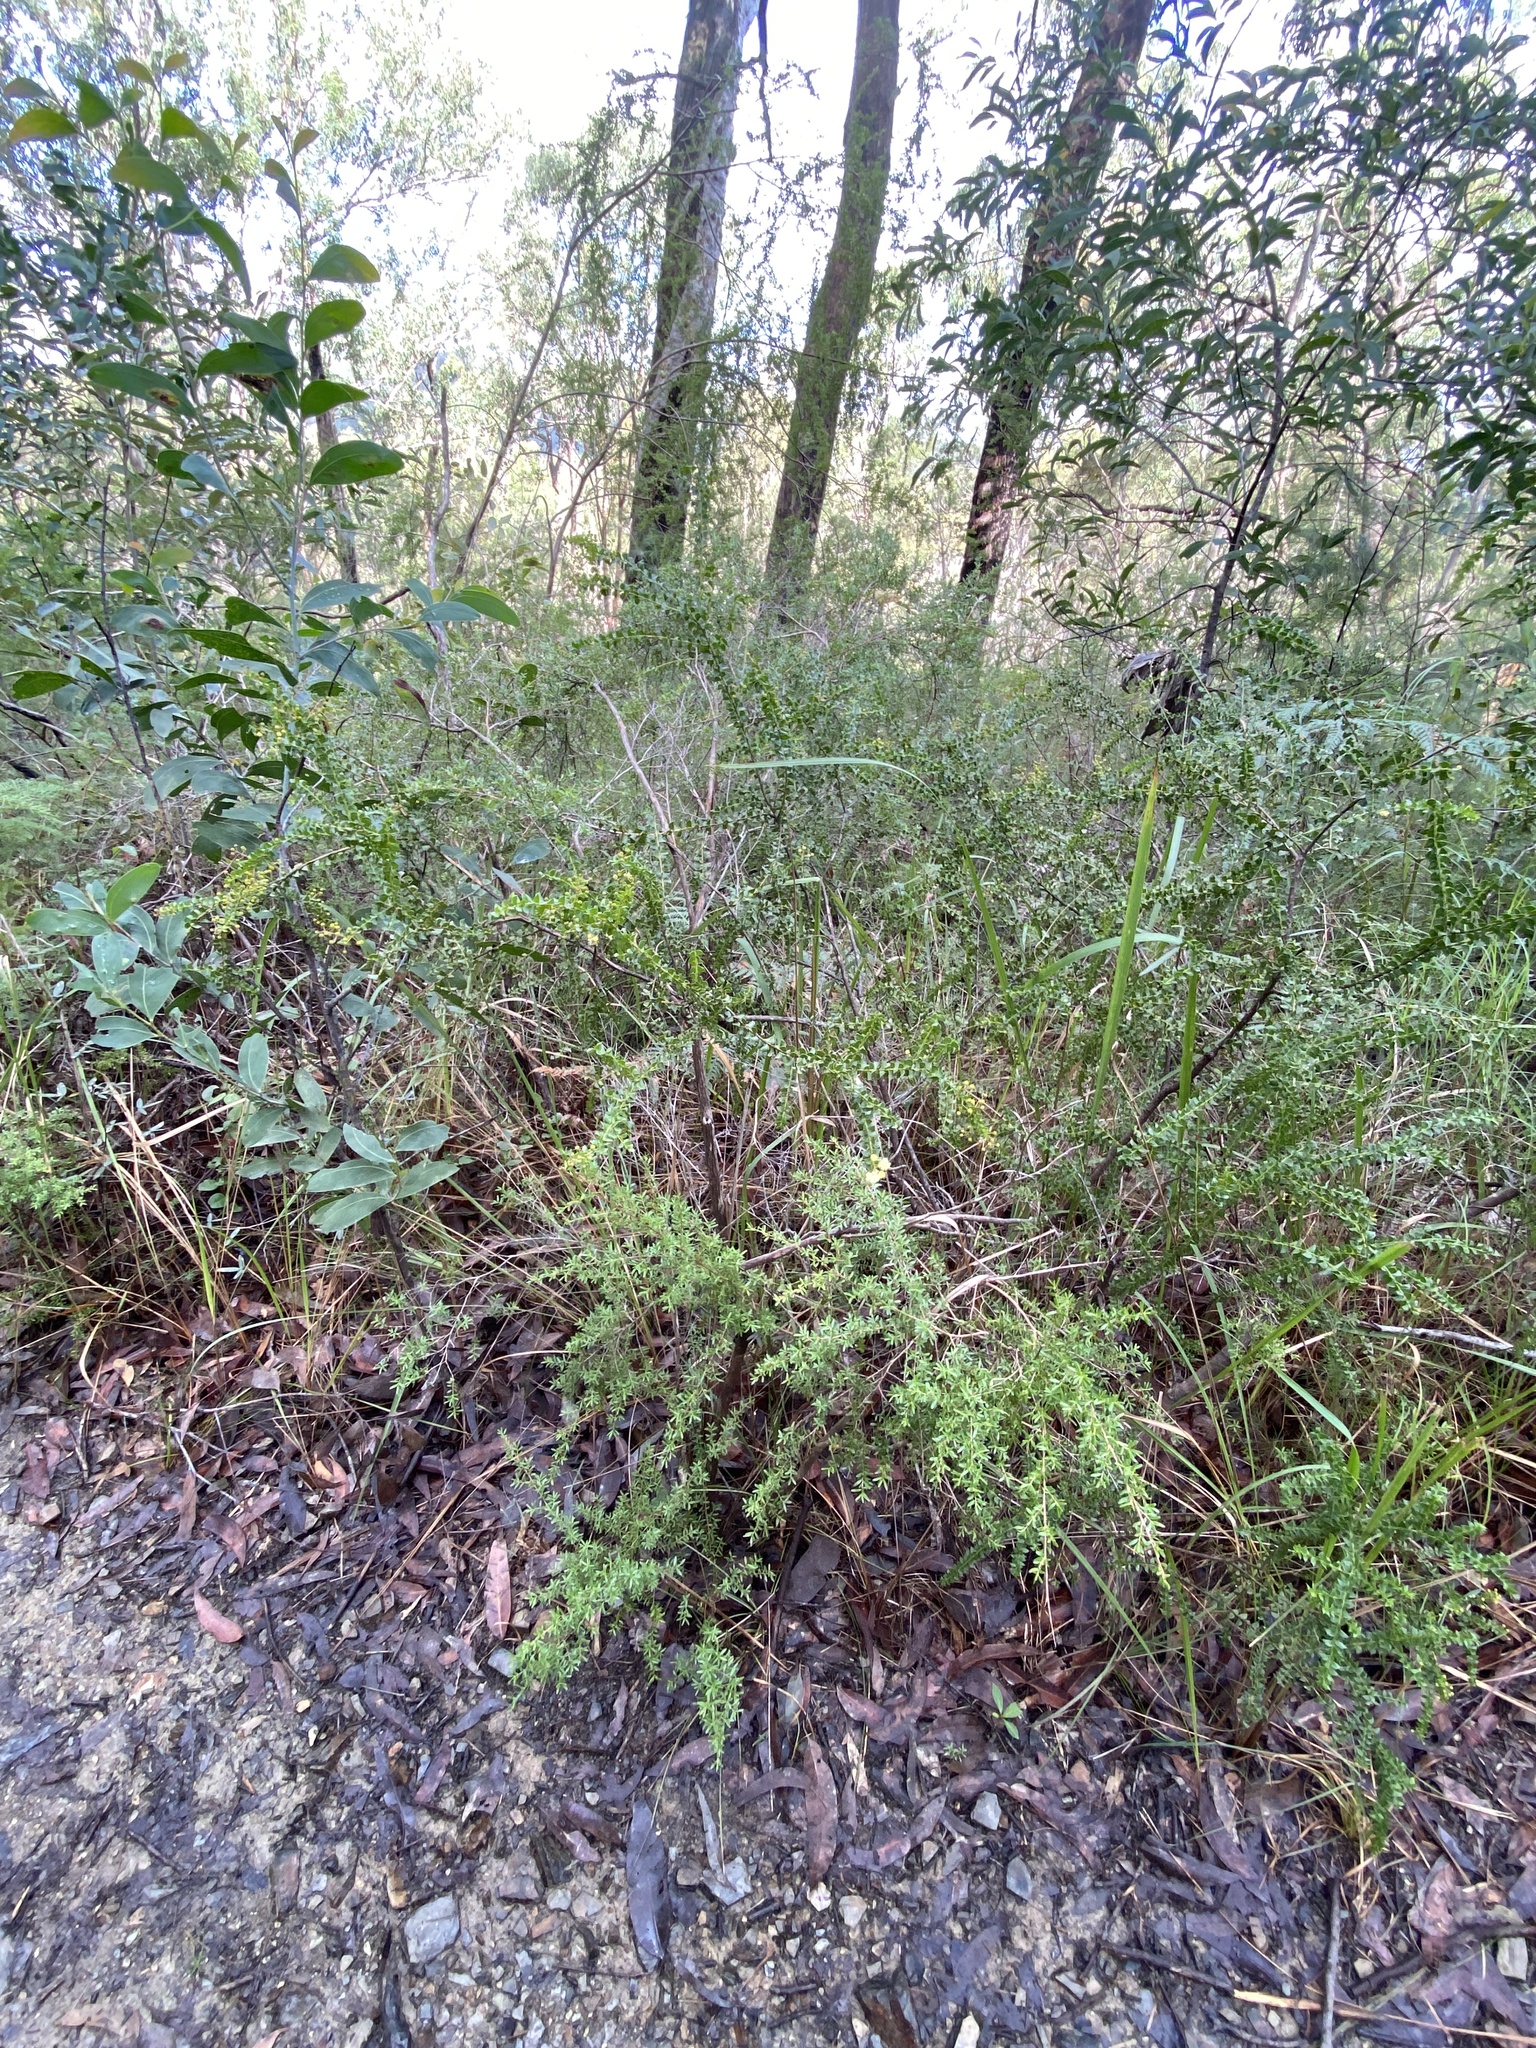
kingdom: Plantae
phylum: Tracheophyta
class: Magnoliopsida
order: Fabales
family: Fabaceae
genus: Acacia
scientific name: Acacia hubbardiana
